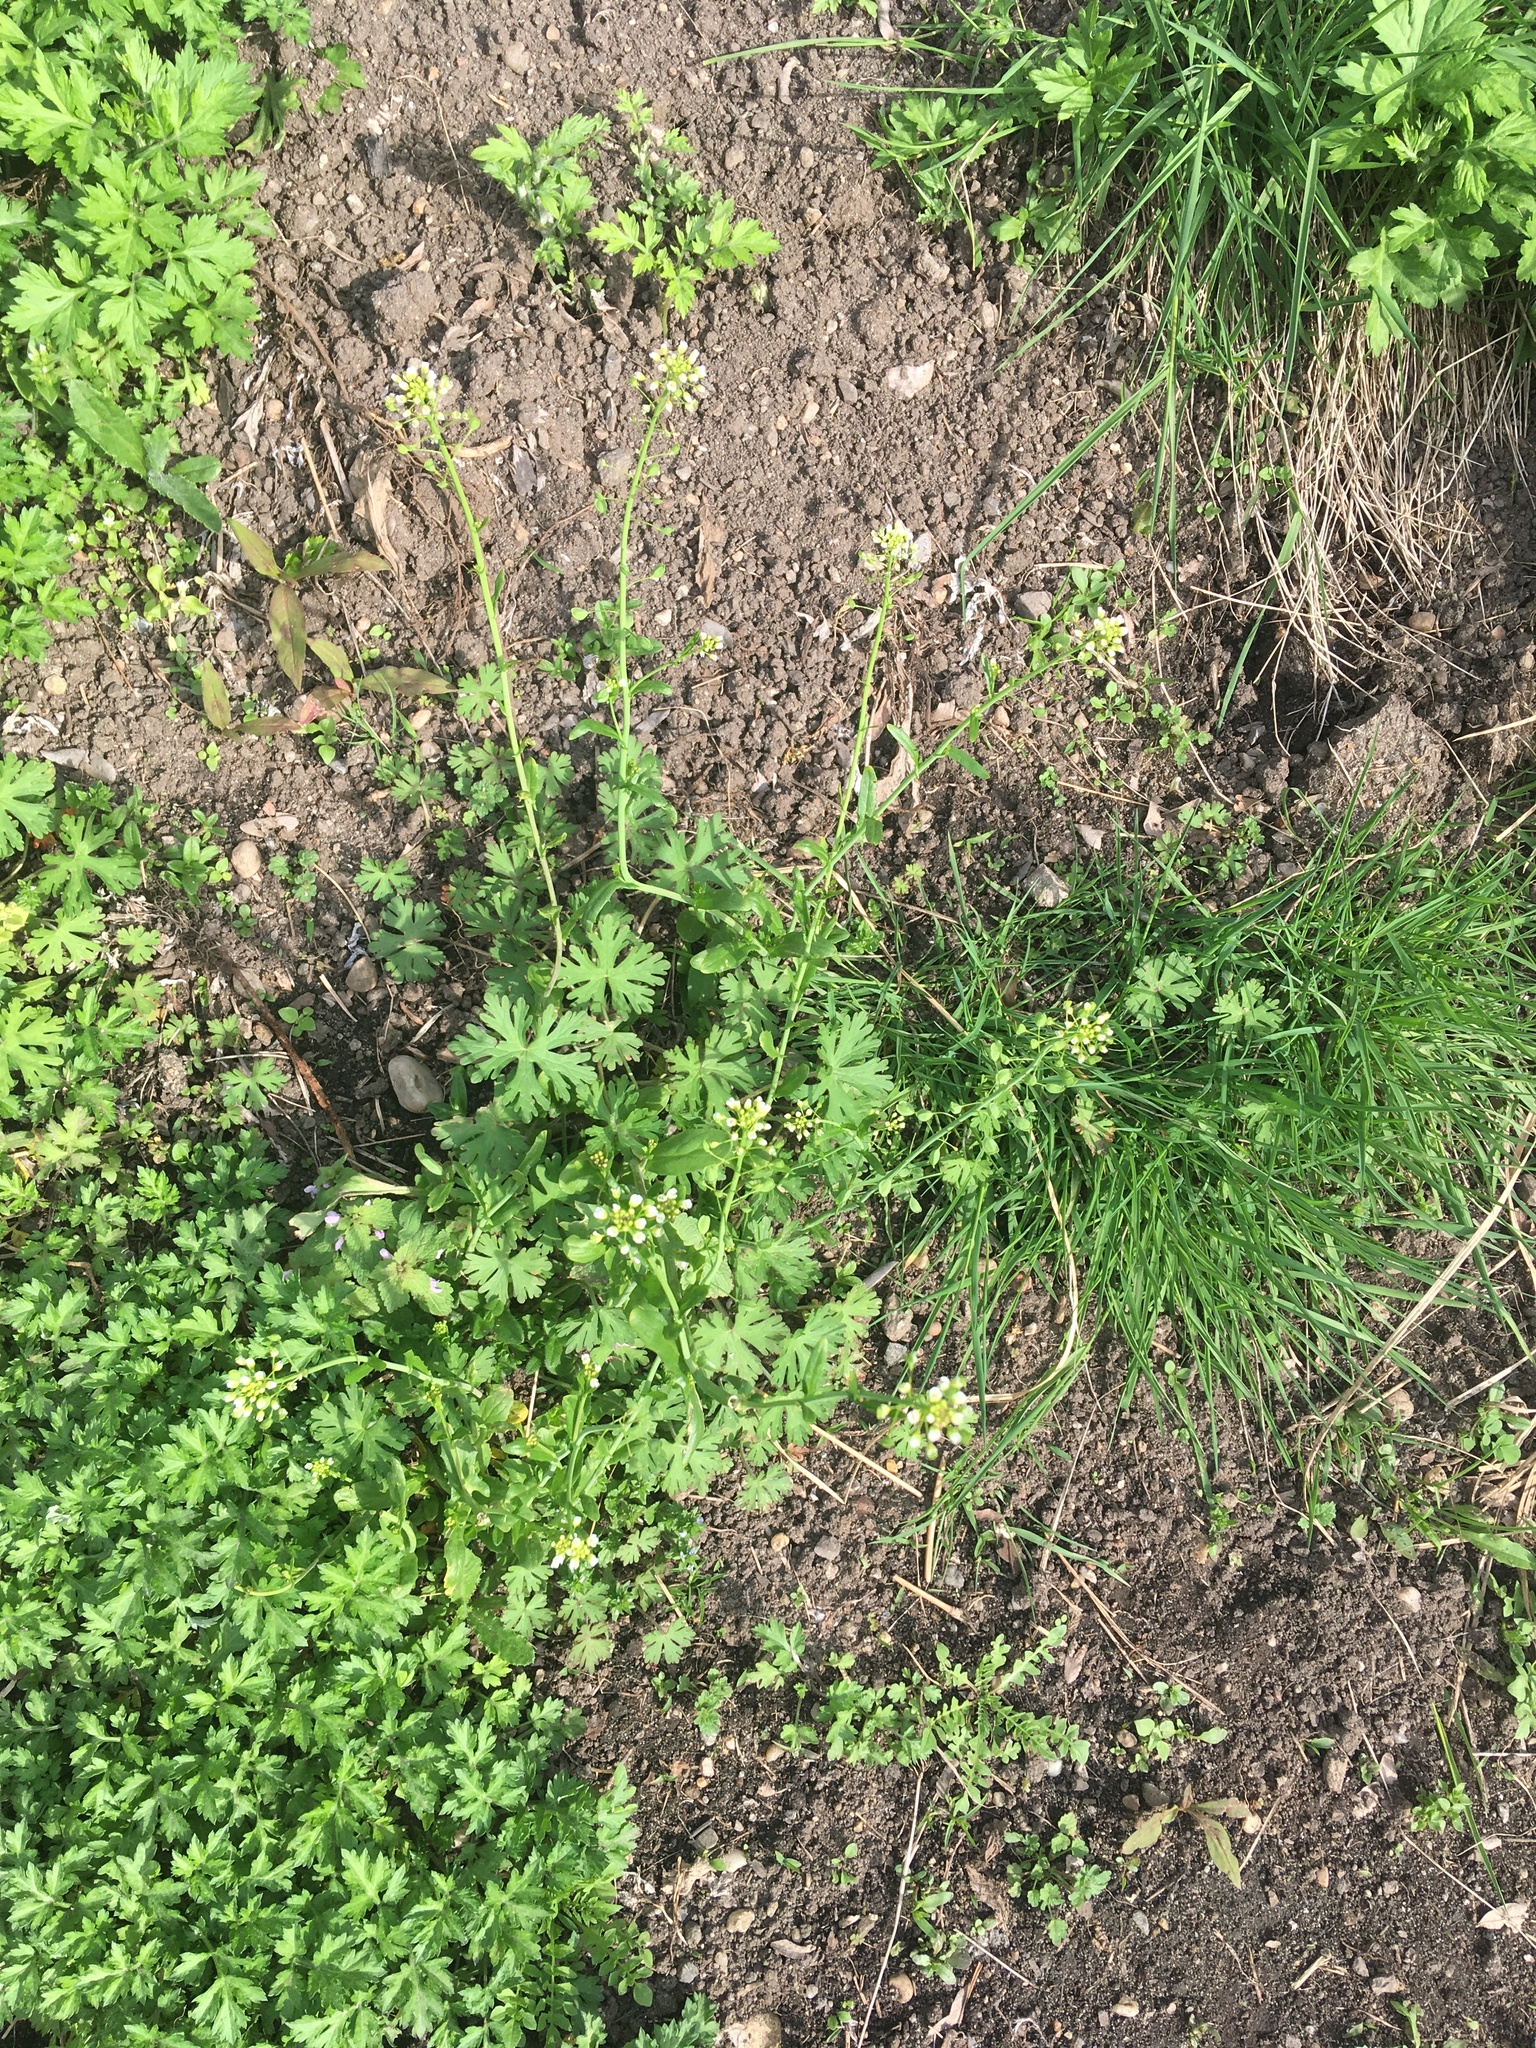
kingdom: Plantae
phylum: Tracheophyta
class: Magnoliopsida
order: Brassicales
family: Brassicaceae
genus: Mummenhoffia
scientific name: Mummenhoffia alliacea
